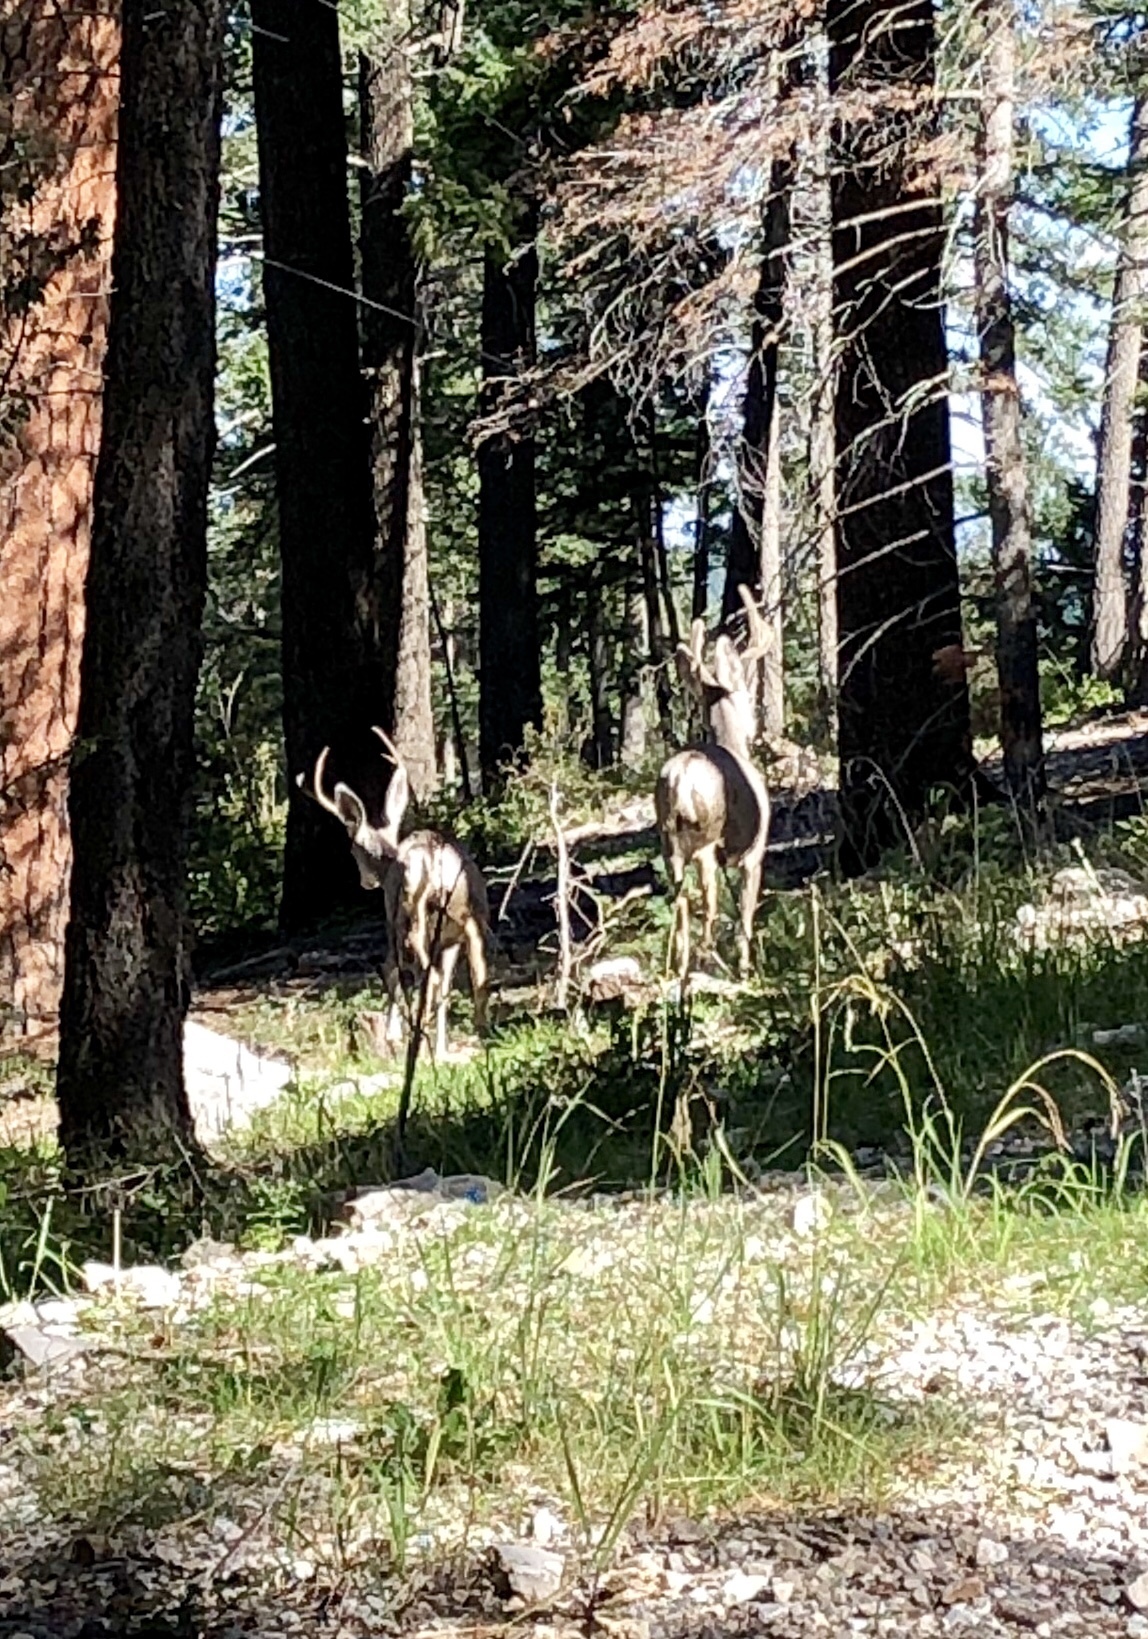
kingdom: Animalia
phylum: Chordata
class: Mammalia
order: Artiodactyla
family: Cervidae
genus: Odocoileus
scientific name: Odocoileus hemionus
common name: Mule deer
